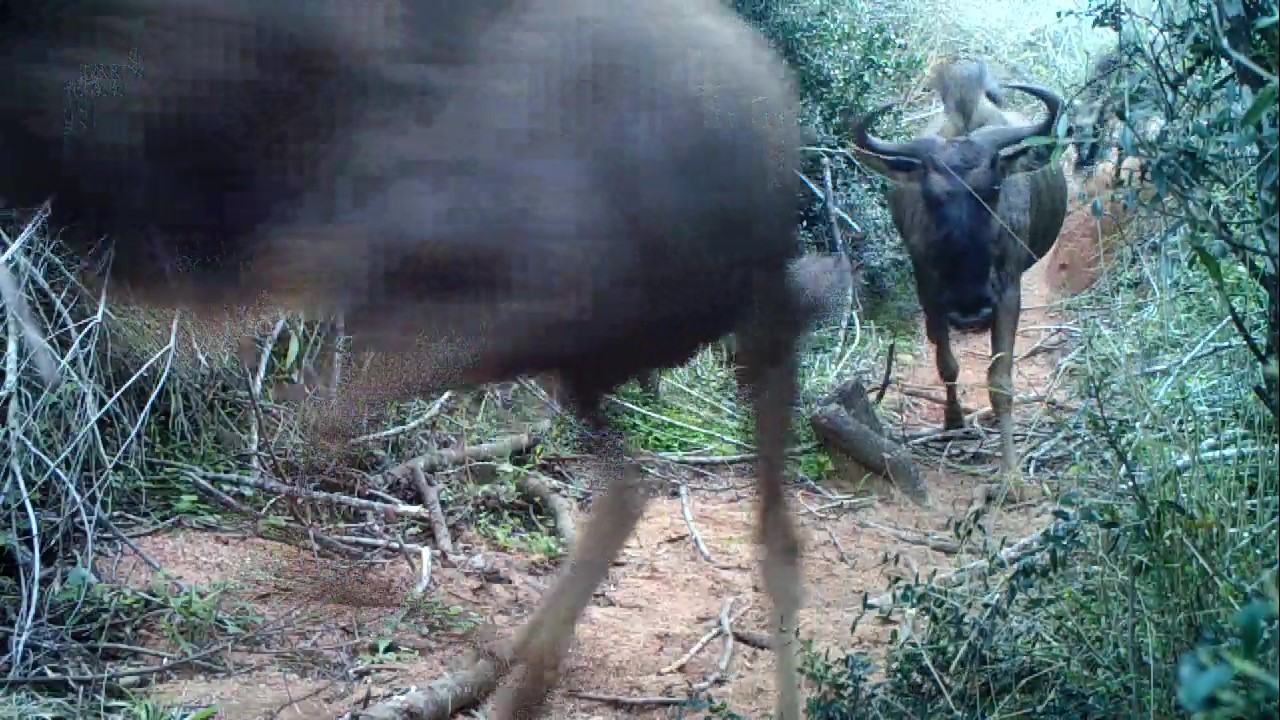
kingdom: Animalia
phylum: Chordata
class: Mammalia
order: Artiodactyla
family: Bovidae
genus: Connochaetes
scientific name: Connochaetes taurinus
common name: Blue wildebeest
